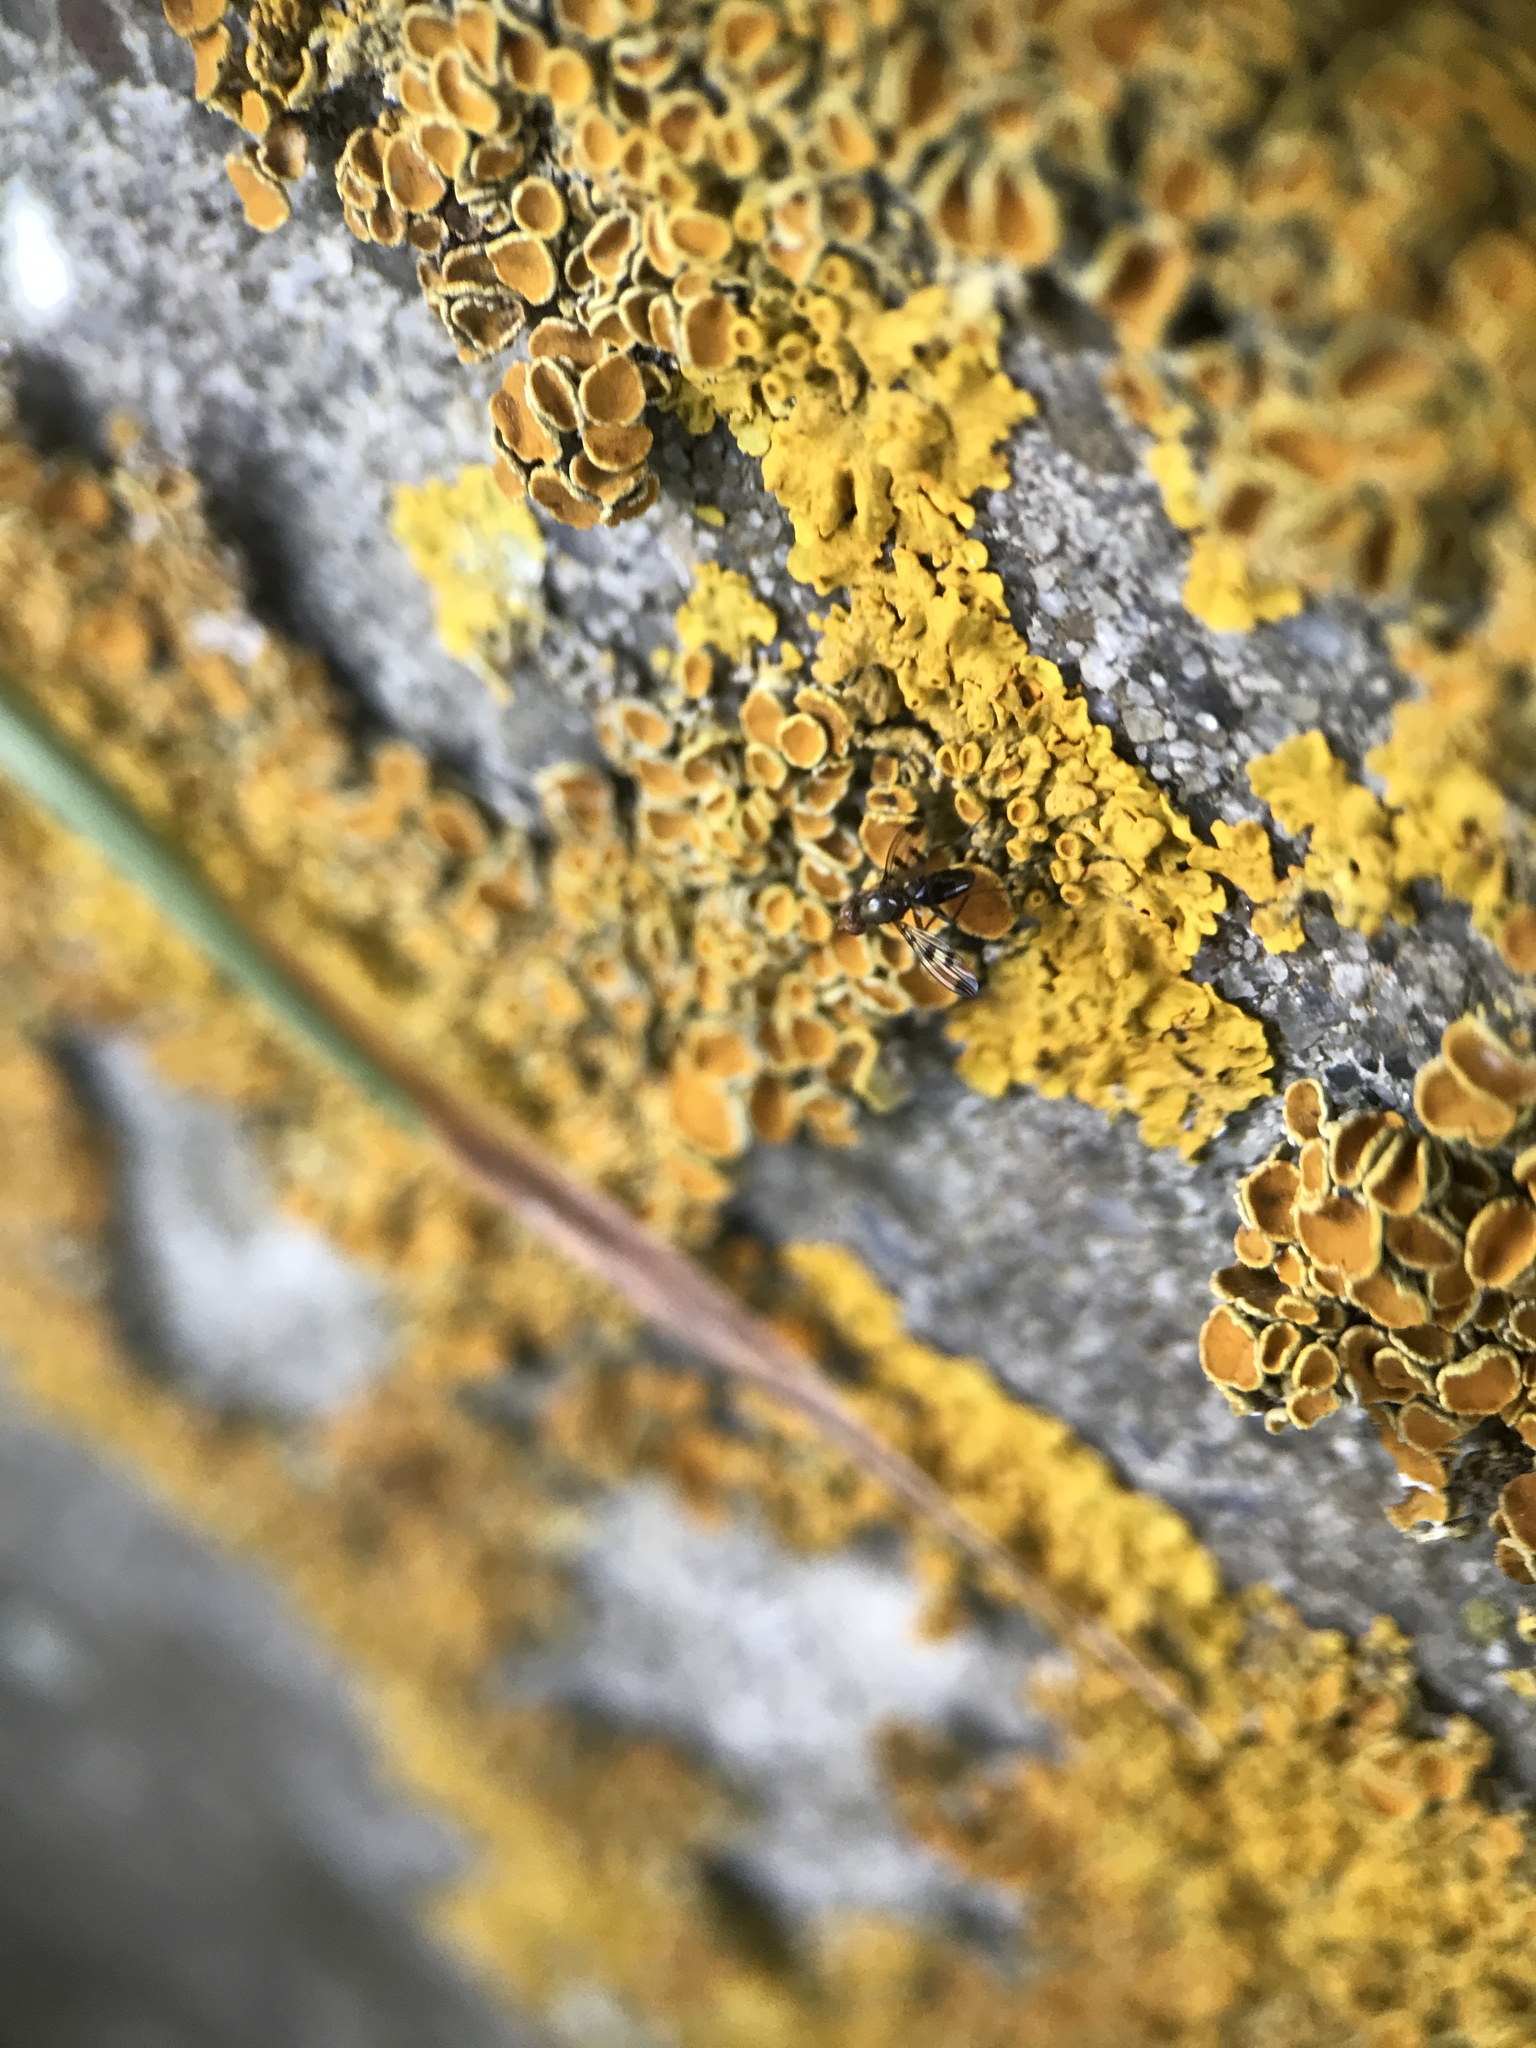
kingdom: Fungi
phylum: Ascomycota
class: Lecanoromycetes
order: Teloschistales
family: Teloschistaceae
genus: Xanthoria
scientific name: Xanthoria parietina
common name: Common orange lichen
